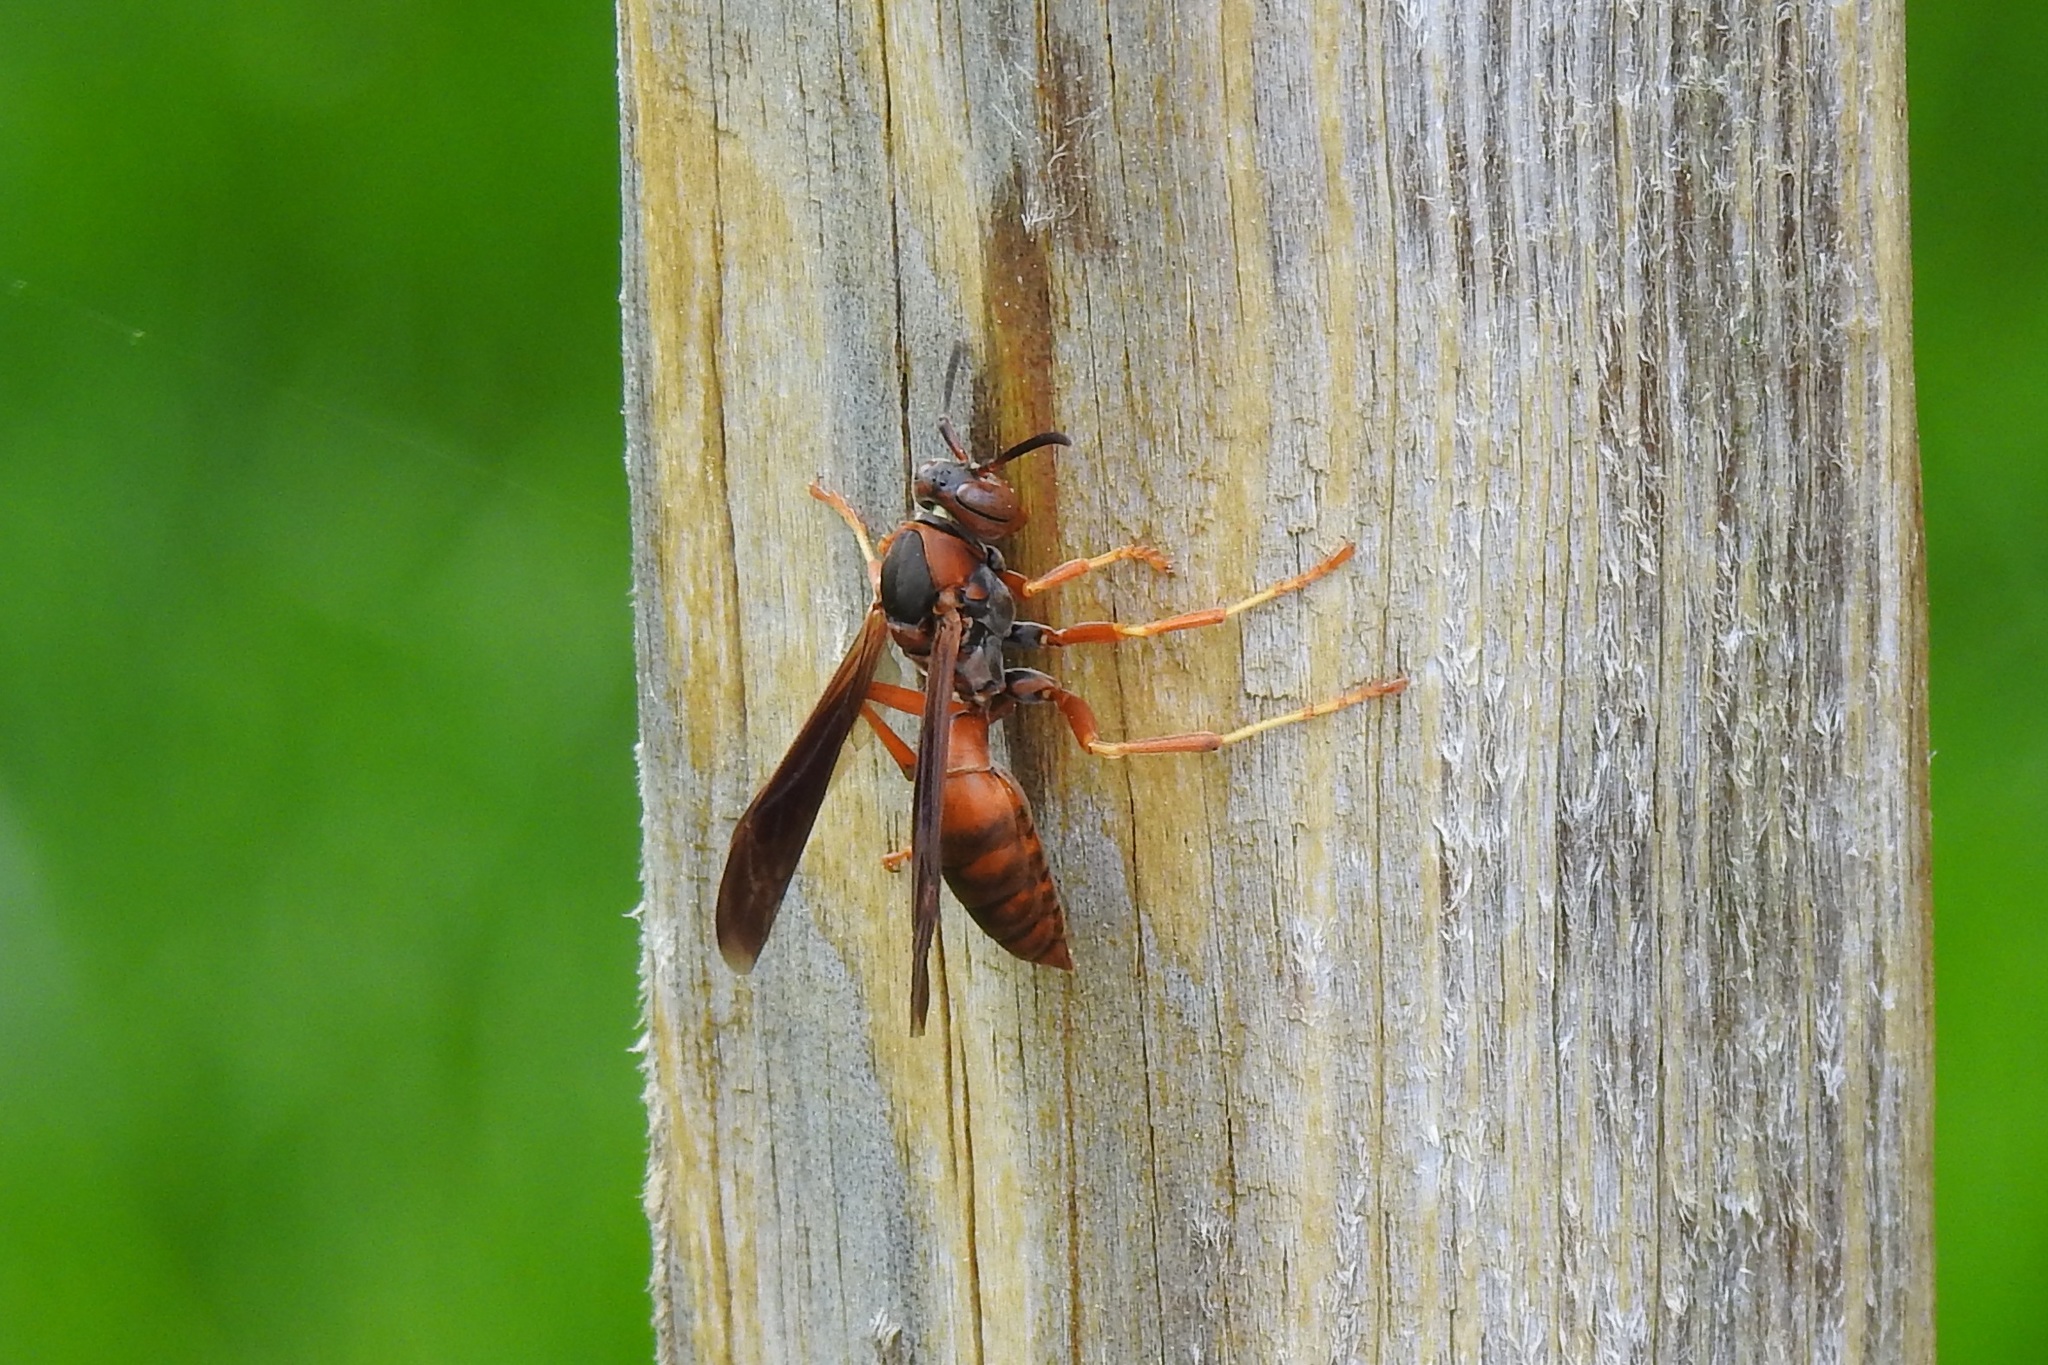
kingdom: Animalia
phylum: Arthropoda
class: Insecta
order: Hymenoptera
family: Eumenidae
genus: Polistes
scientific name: Polistes fuscatus
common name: Dark paper wasp
